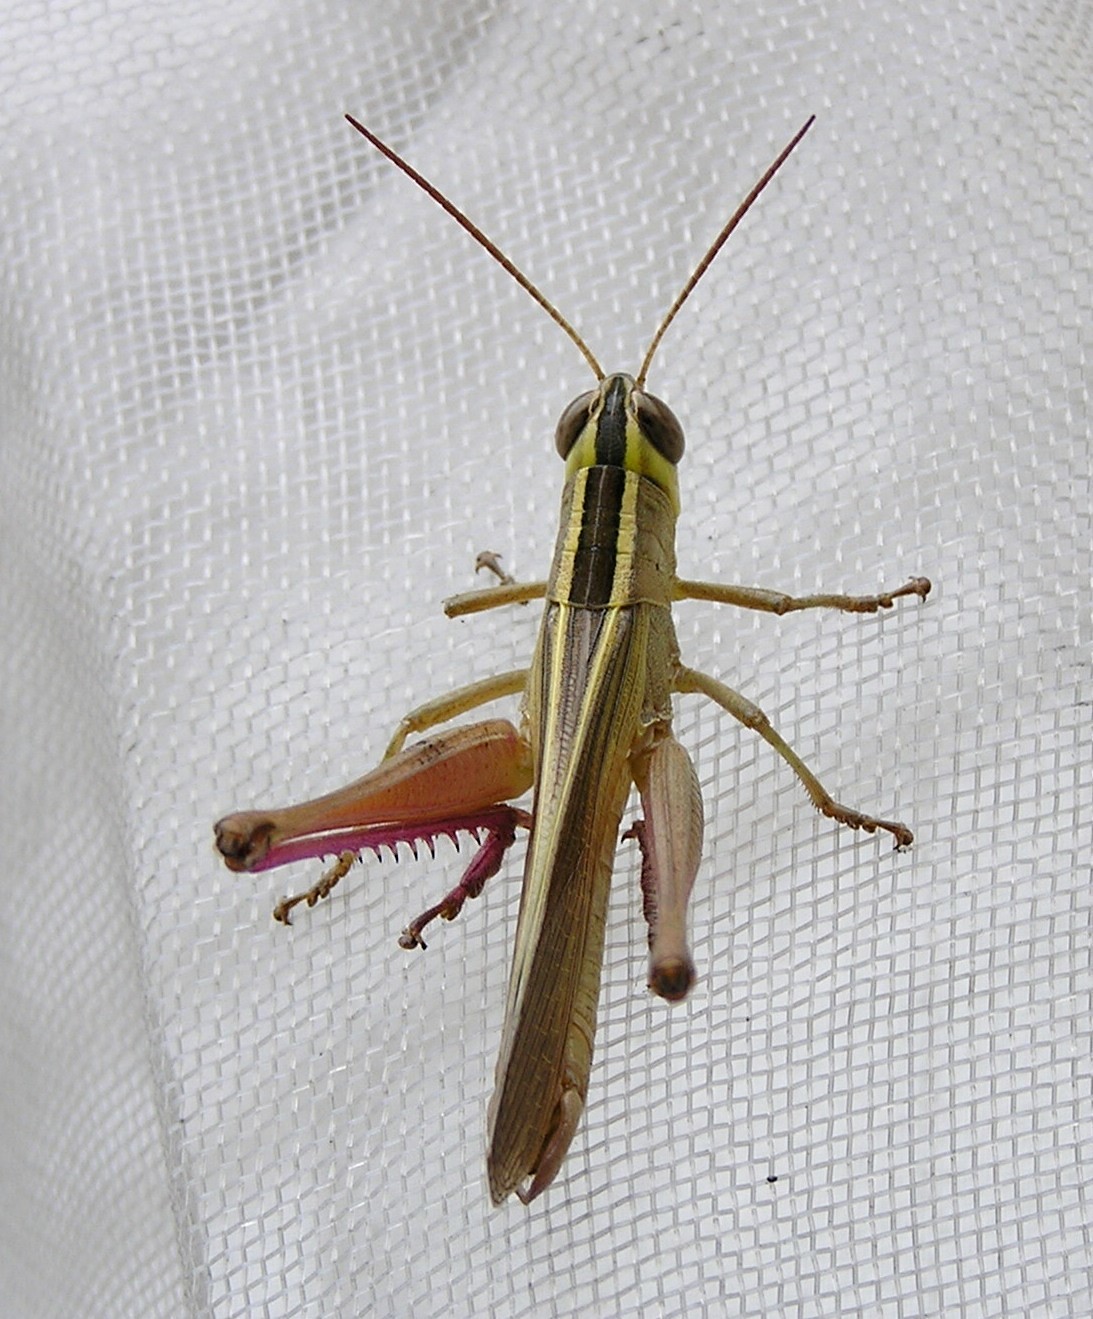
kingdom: Animalia
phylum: Arthropoda
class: Insecta
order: Orthoptera
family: Acrididae
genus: Choroedocus
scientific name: Choroedocus violaceipes
